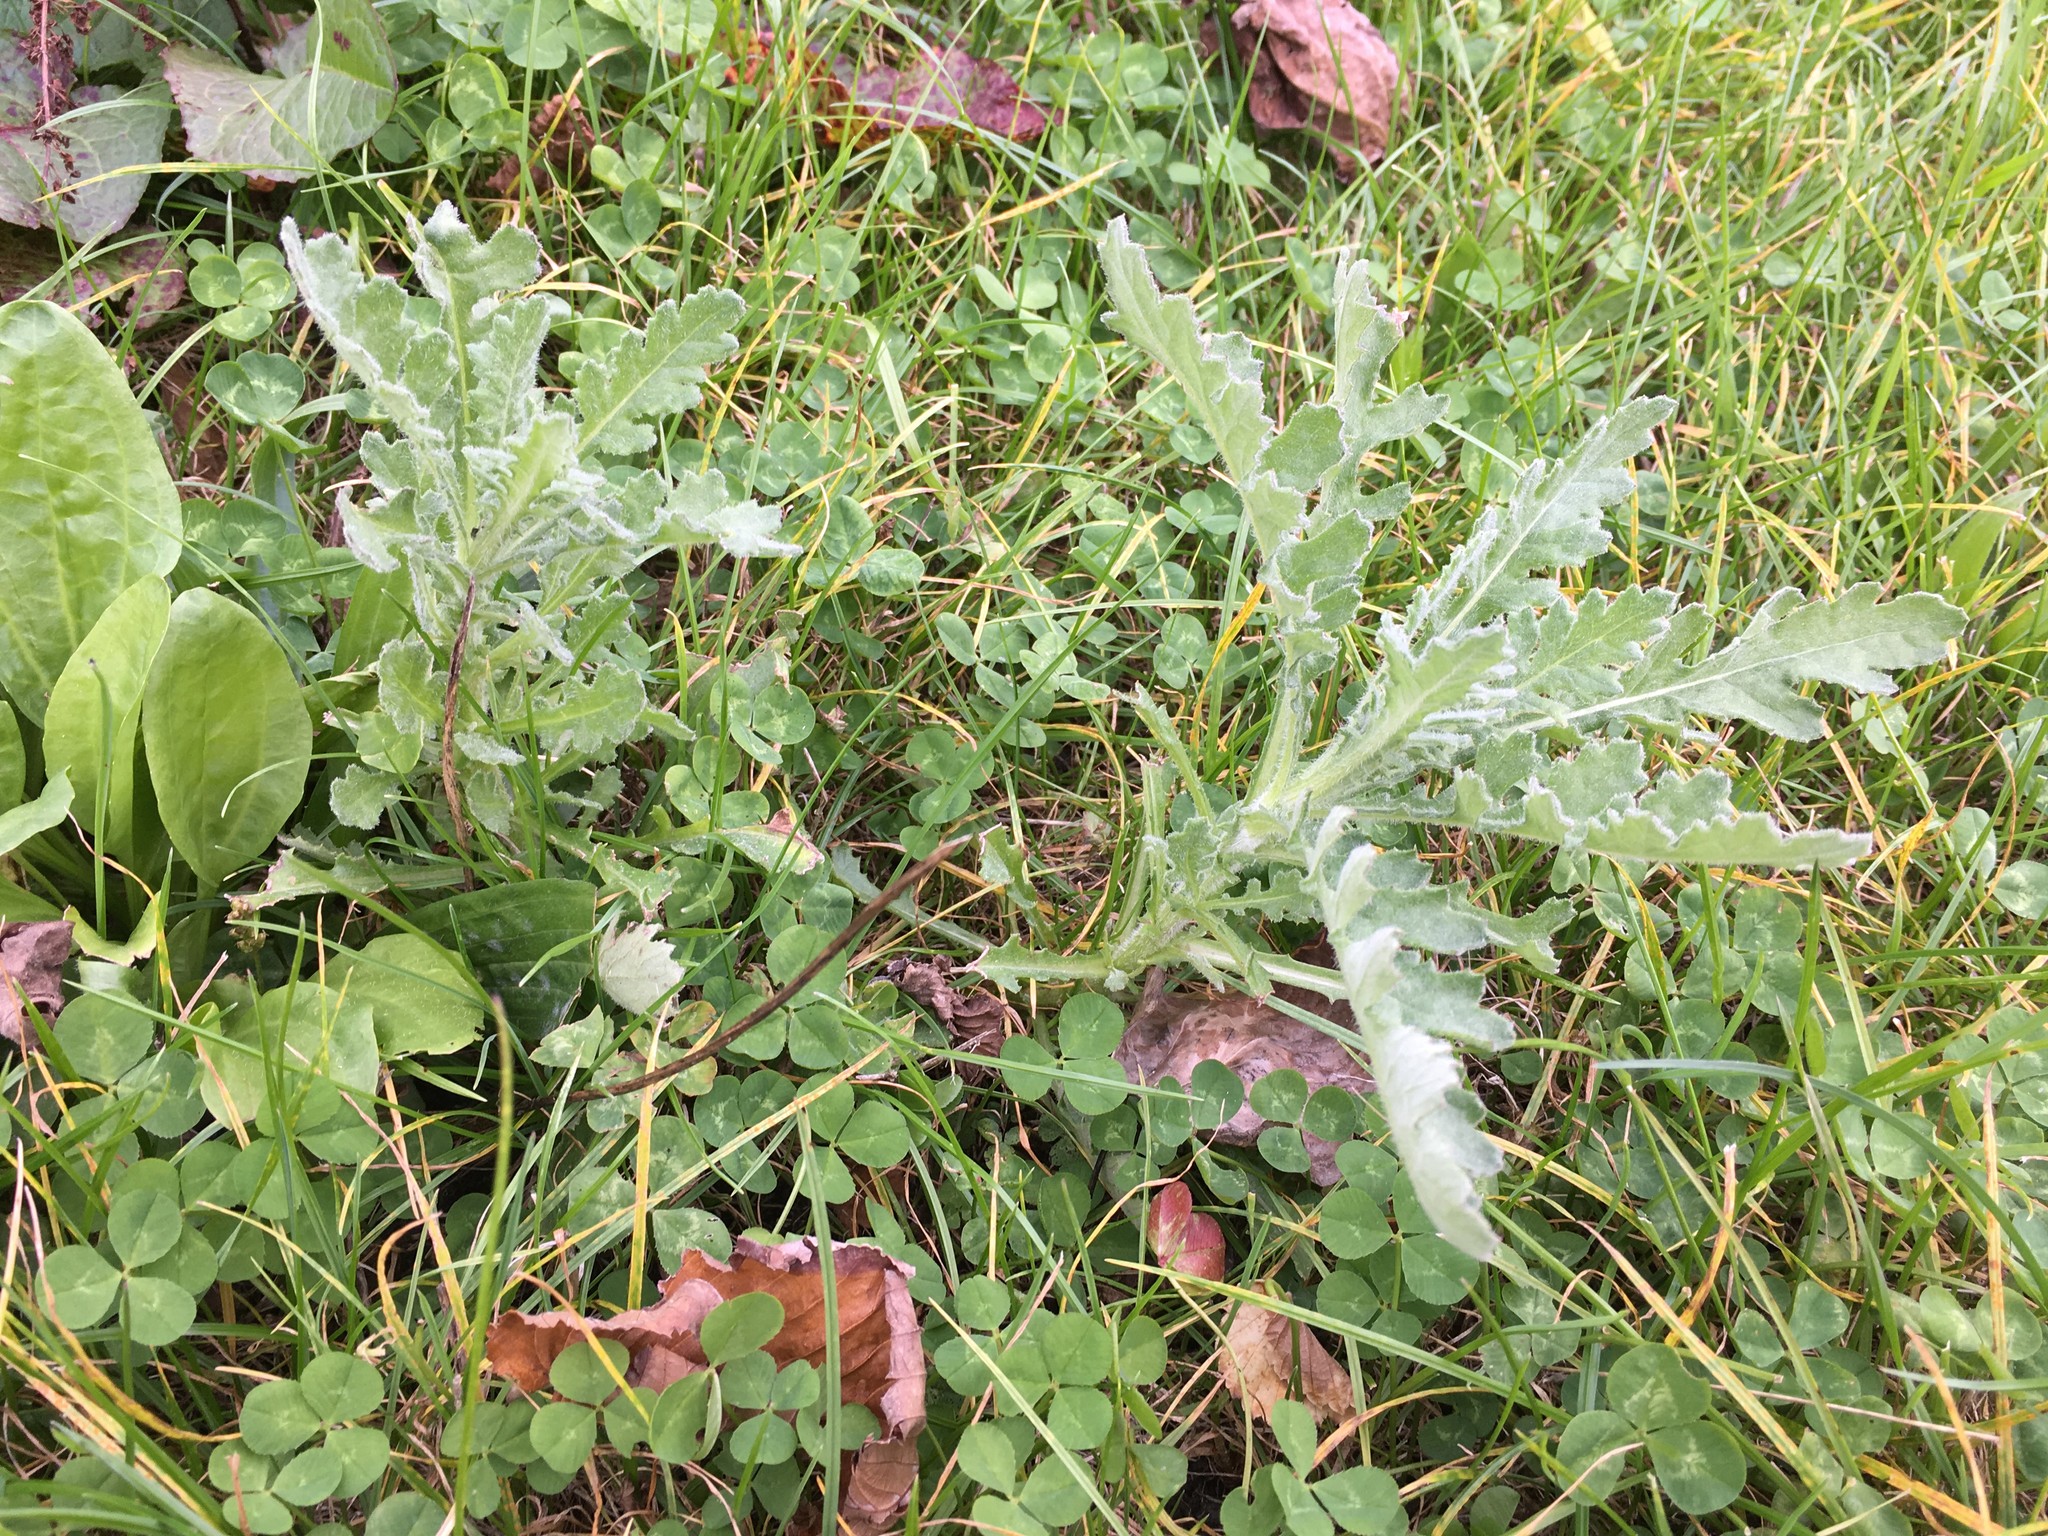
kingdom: Plantae
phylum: Tracheophyta
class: Magnoliopsida
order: Asterales
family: Asteraceae
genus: Senecio
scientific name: Senecio glomeratus
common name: Cutleaf burnweed
